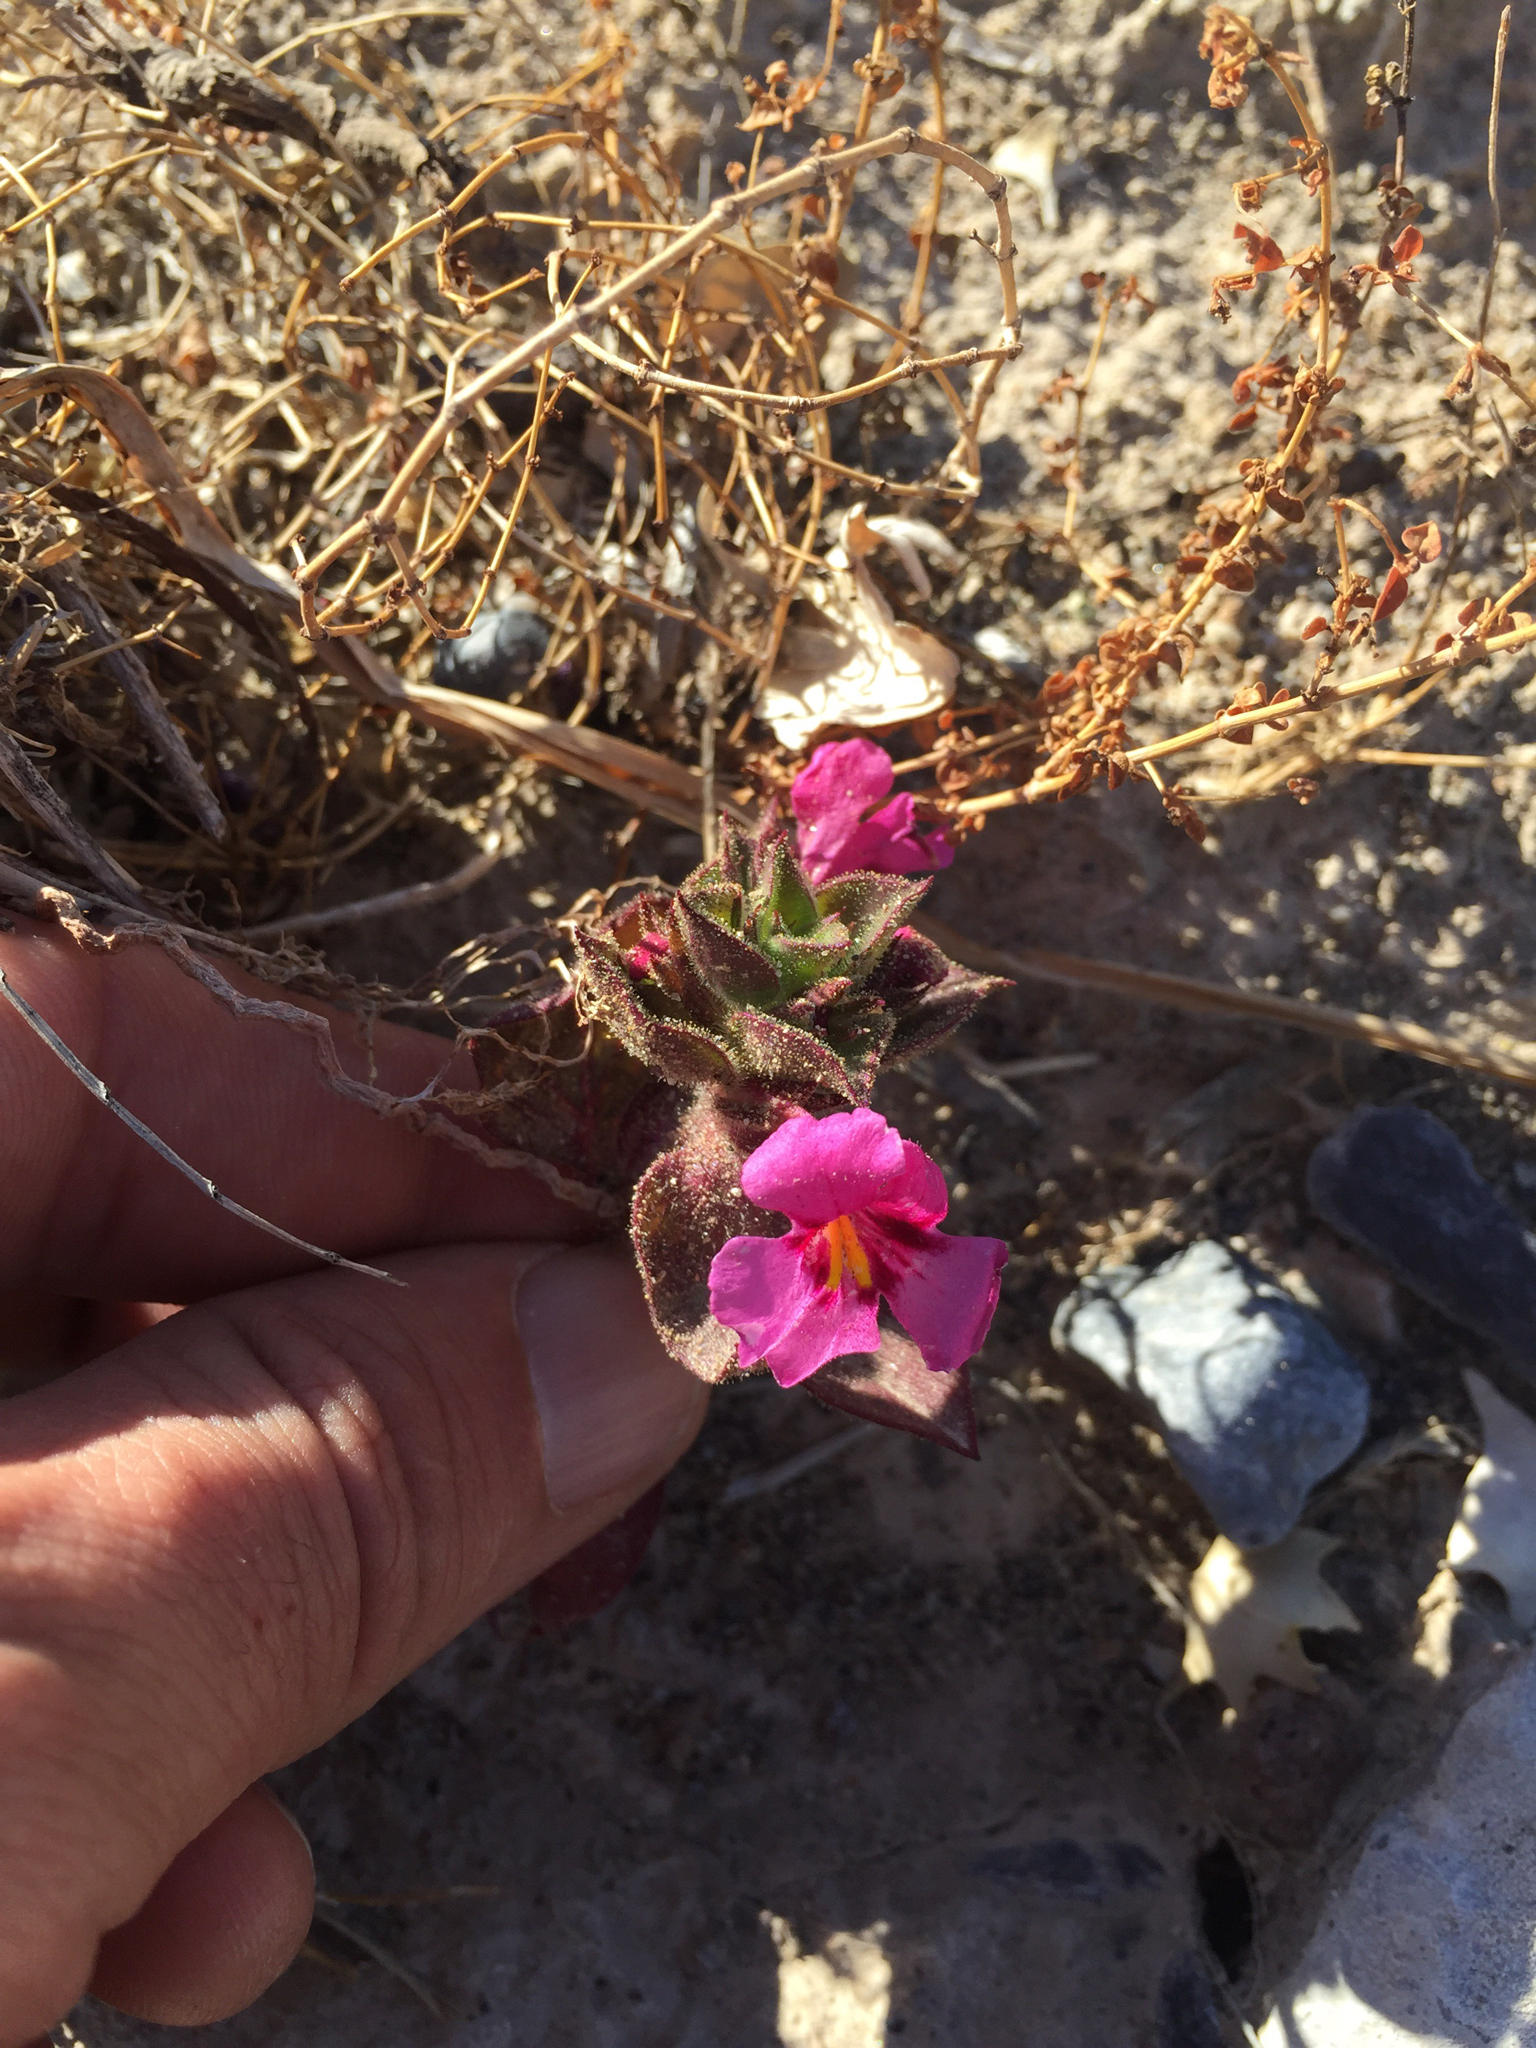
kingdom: Plantae
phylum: Tracheophyta
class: Magnoliopsida
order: Lamiales
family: Phrymaceae
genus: Diplacus
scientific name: Diplacus bigelovii
